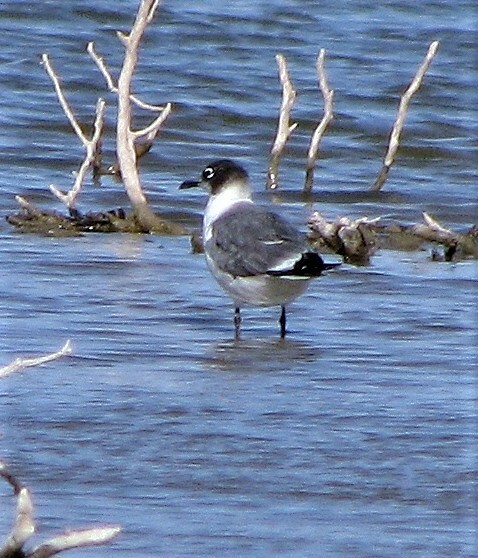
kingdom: Animalia
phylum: Chordata
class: Aves
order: Charadriiformes
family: Laridae
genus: Leucophaeus
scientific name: Leucophaeus pipixcan
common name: Franklin's gull
